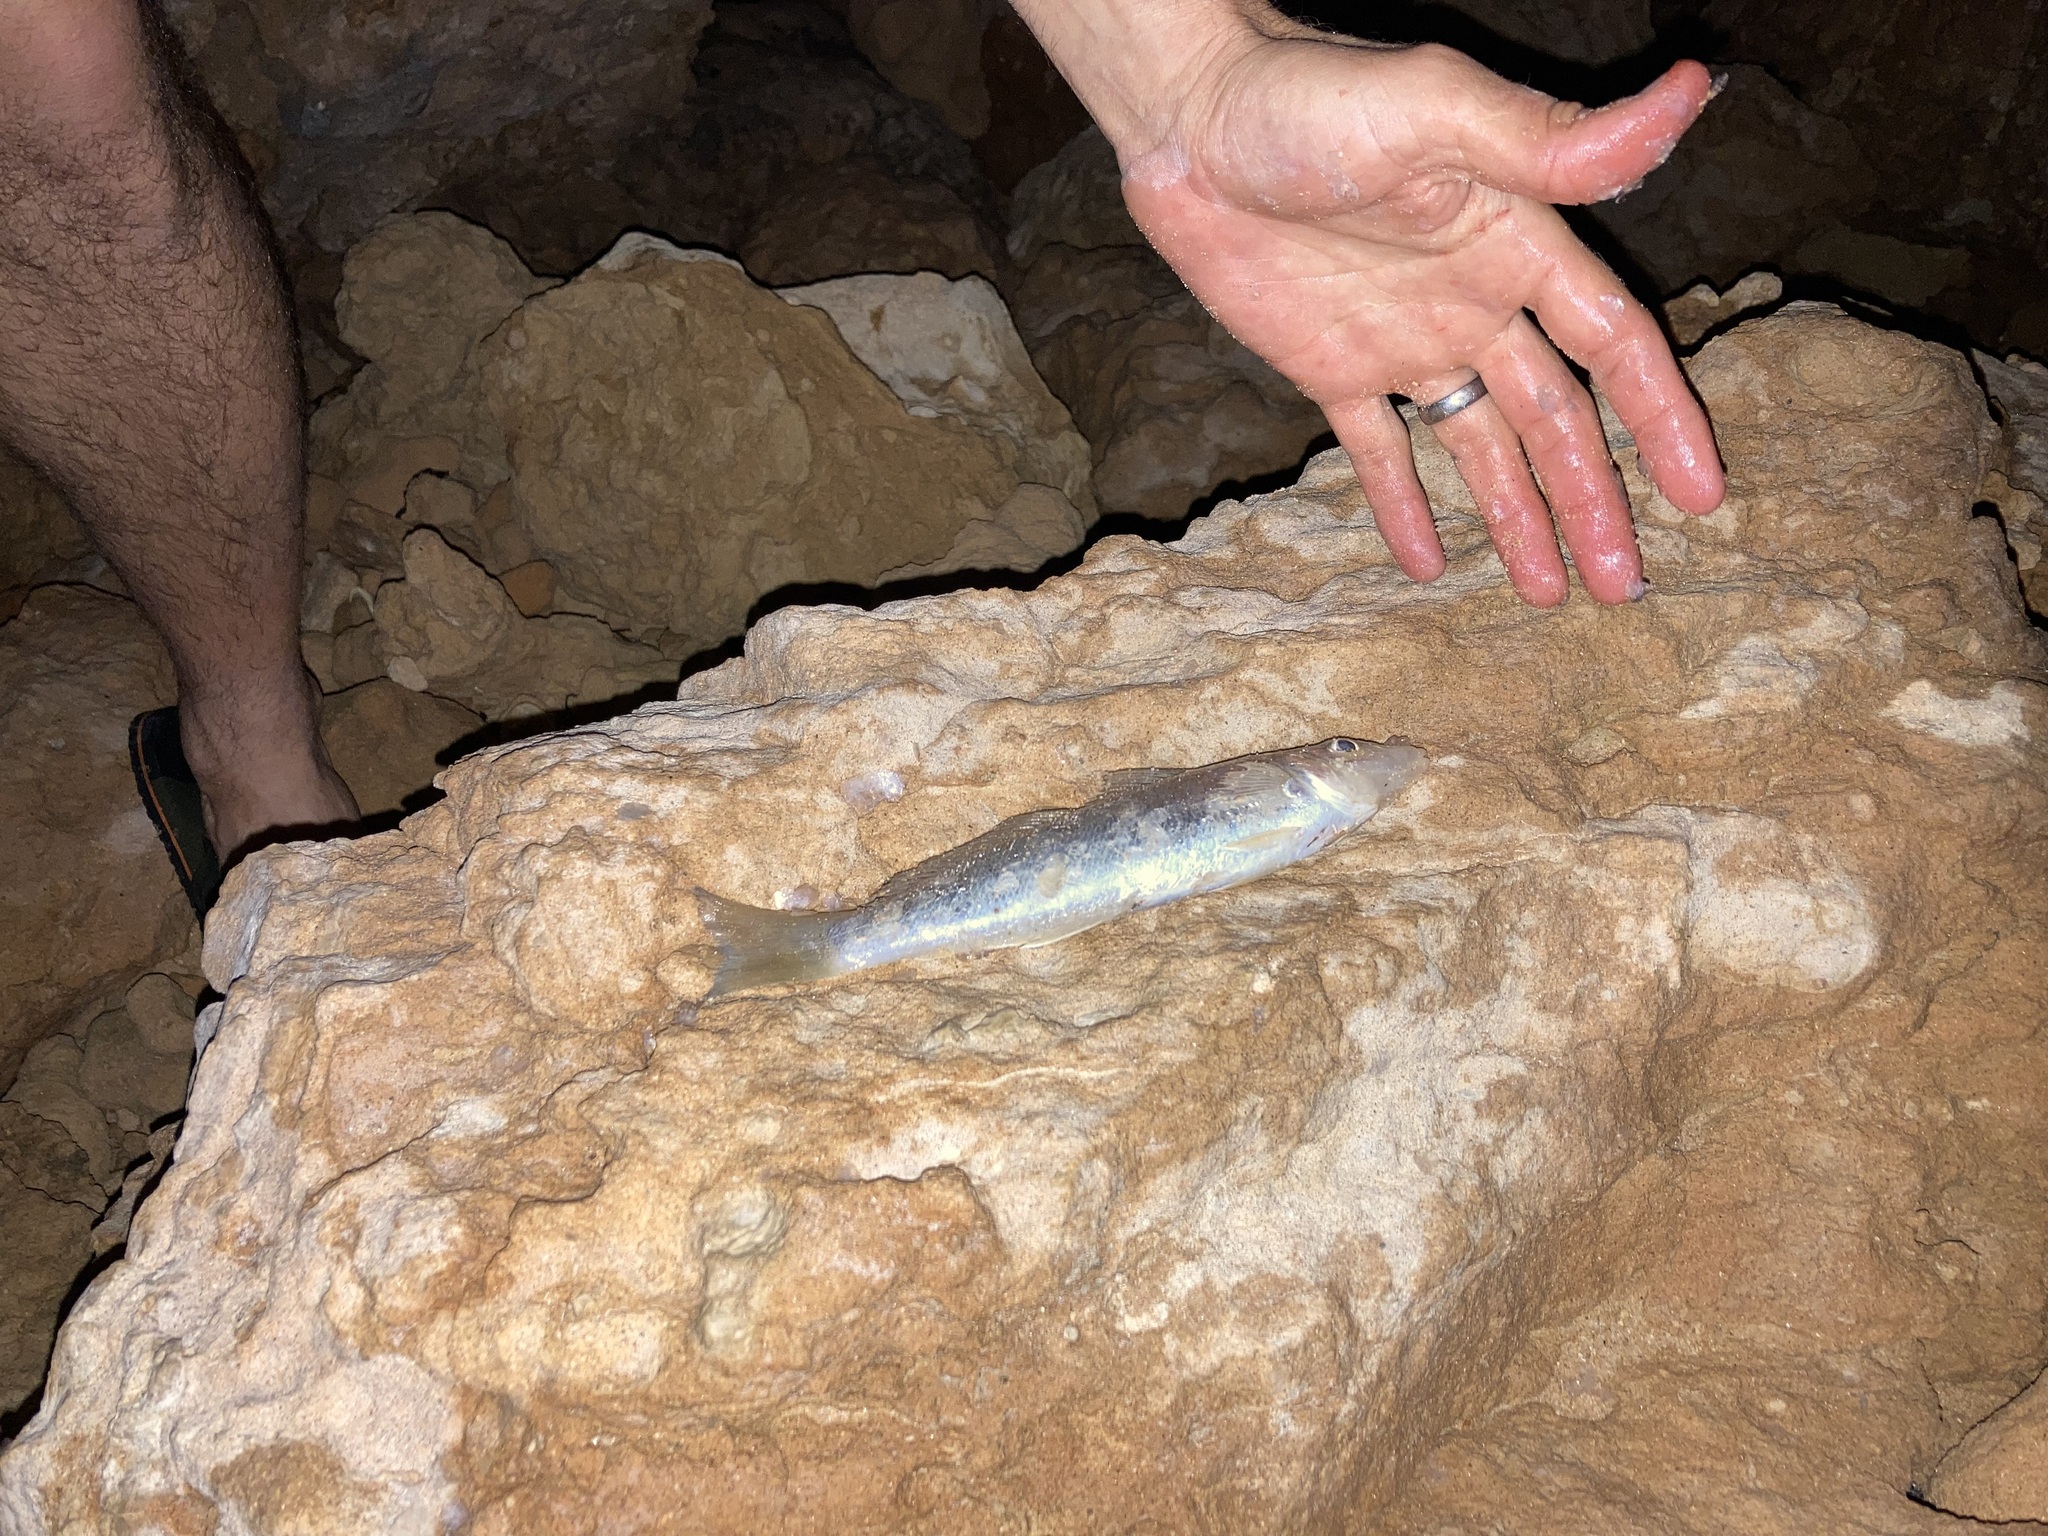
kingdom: Animalia
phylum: Chordata
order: Perciformes
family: Sillaginidae
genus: Sillago
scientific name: Sillago schomburgkii
